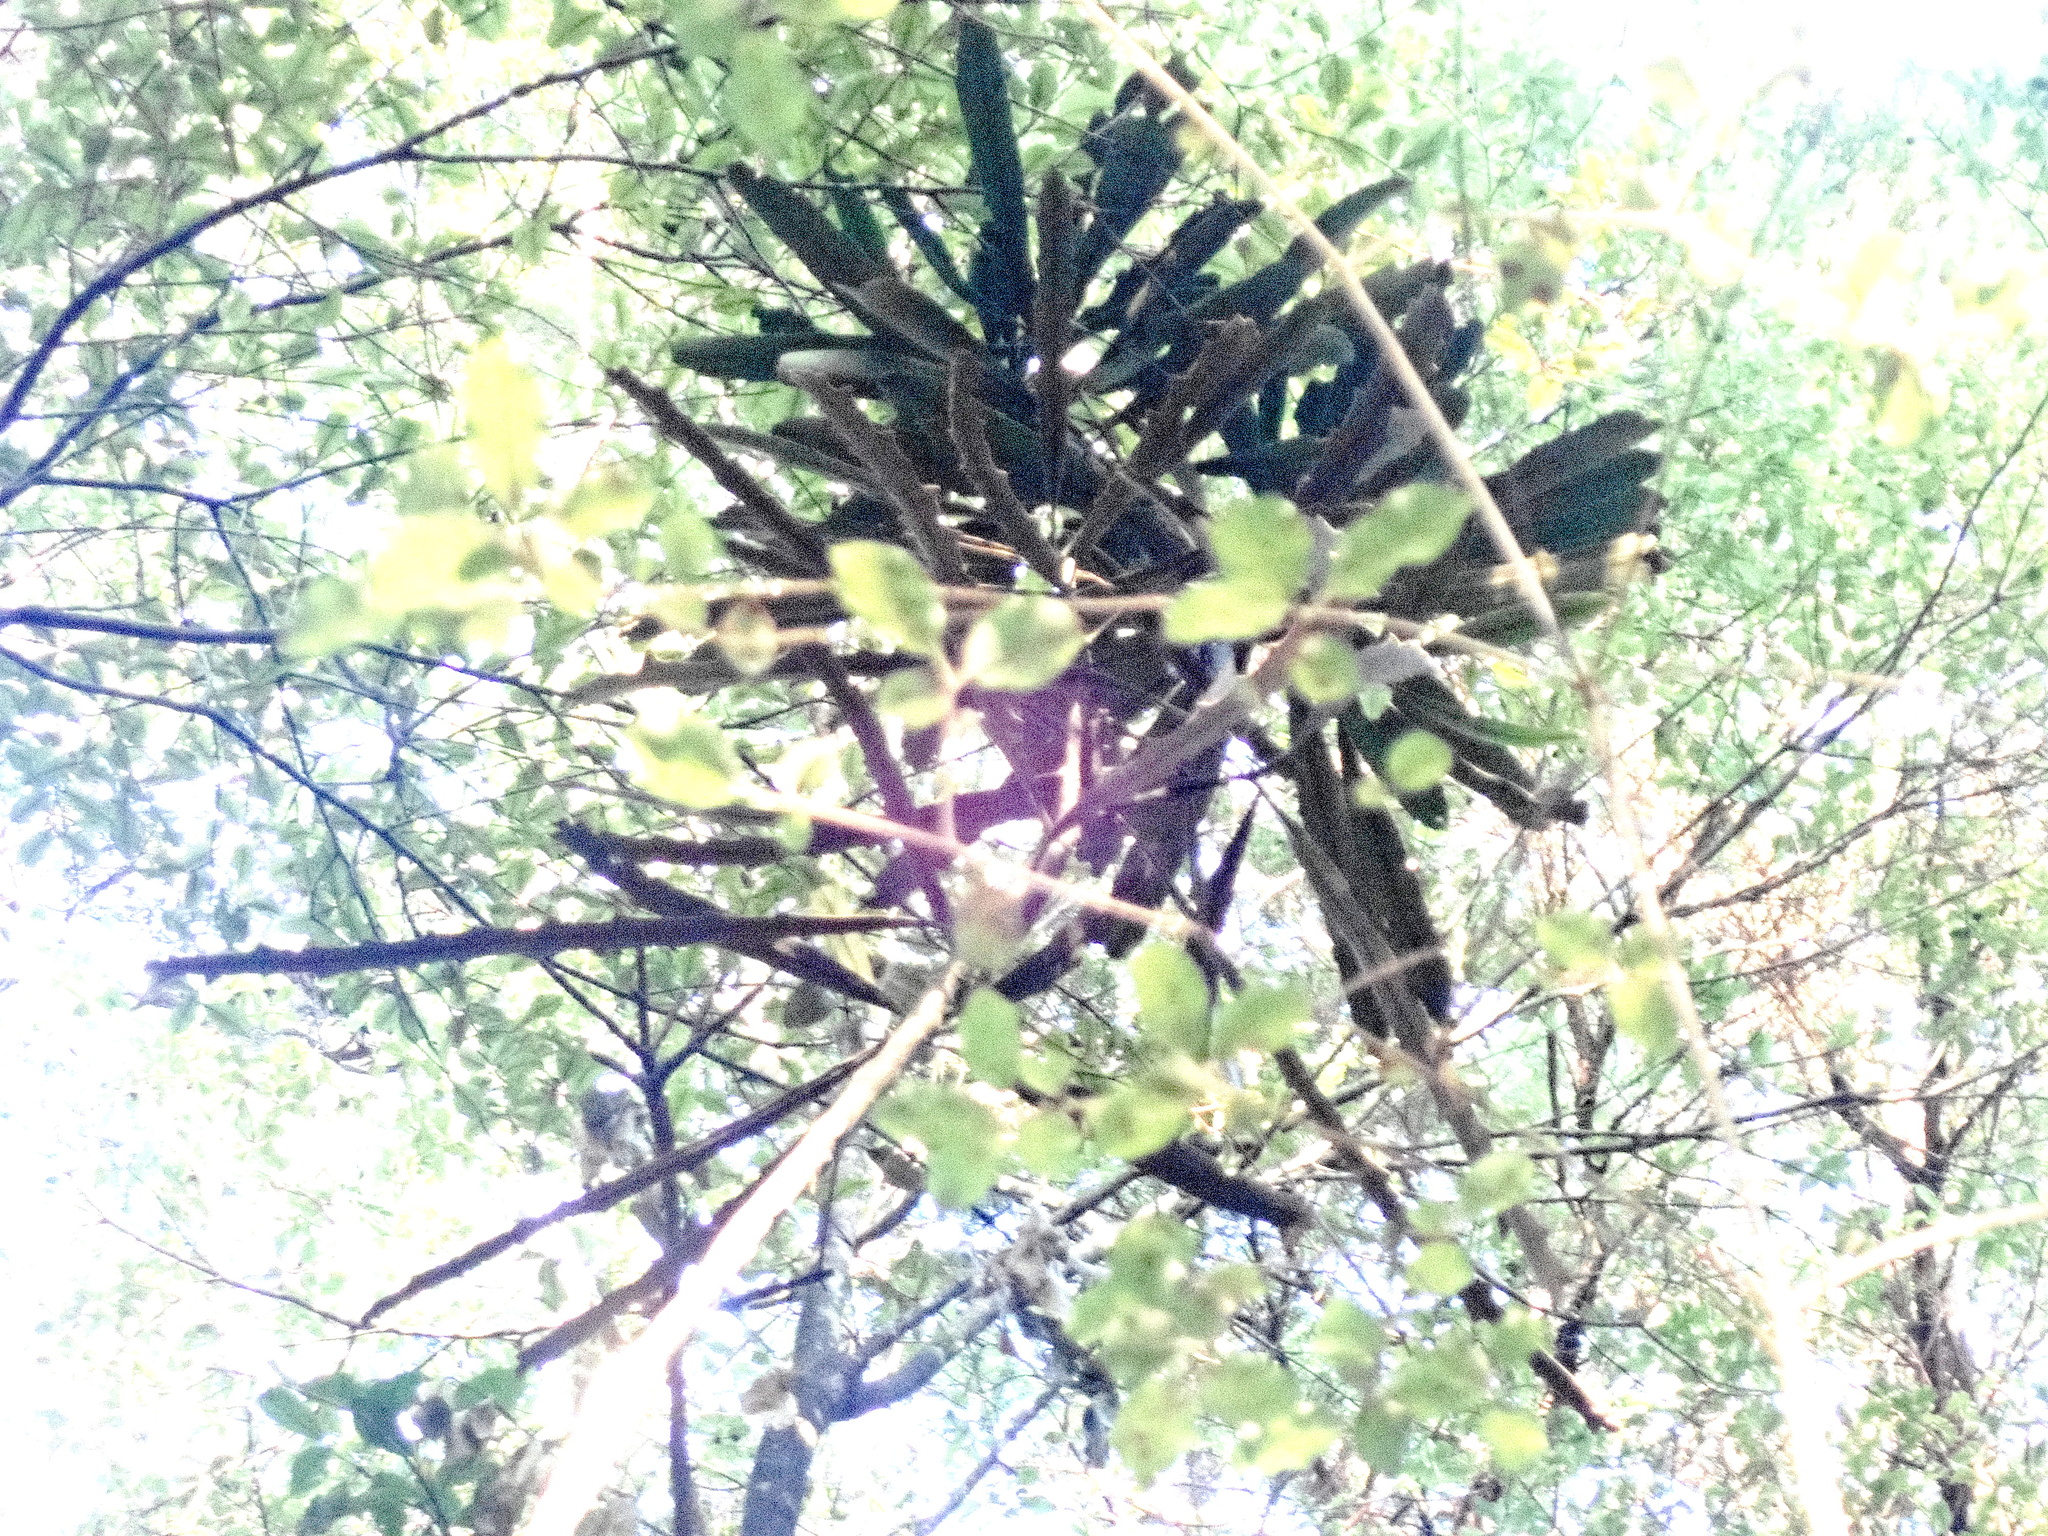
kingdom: Plantae
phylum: Tracheophyta
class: Magnoliopsida
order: Apiales
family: Pittosporaceae
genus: Pittosporum
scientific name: Pittosporum tenuifolium
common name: Kohuhu
